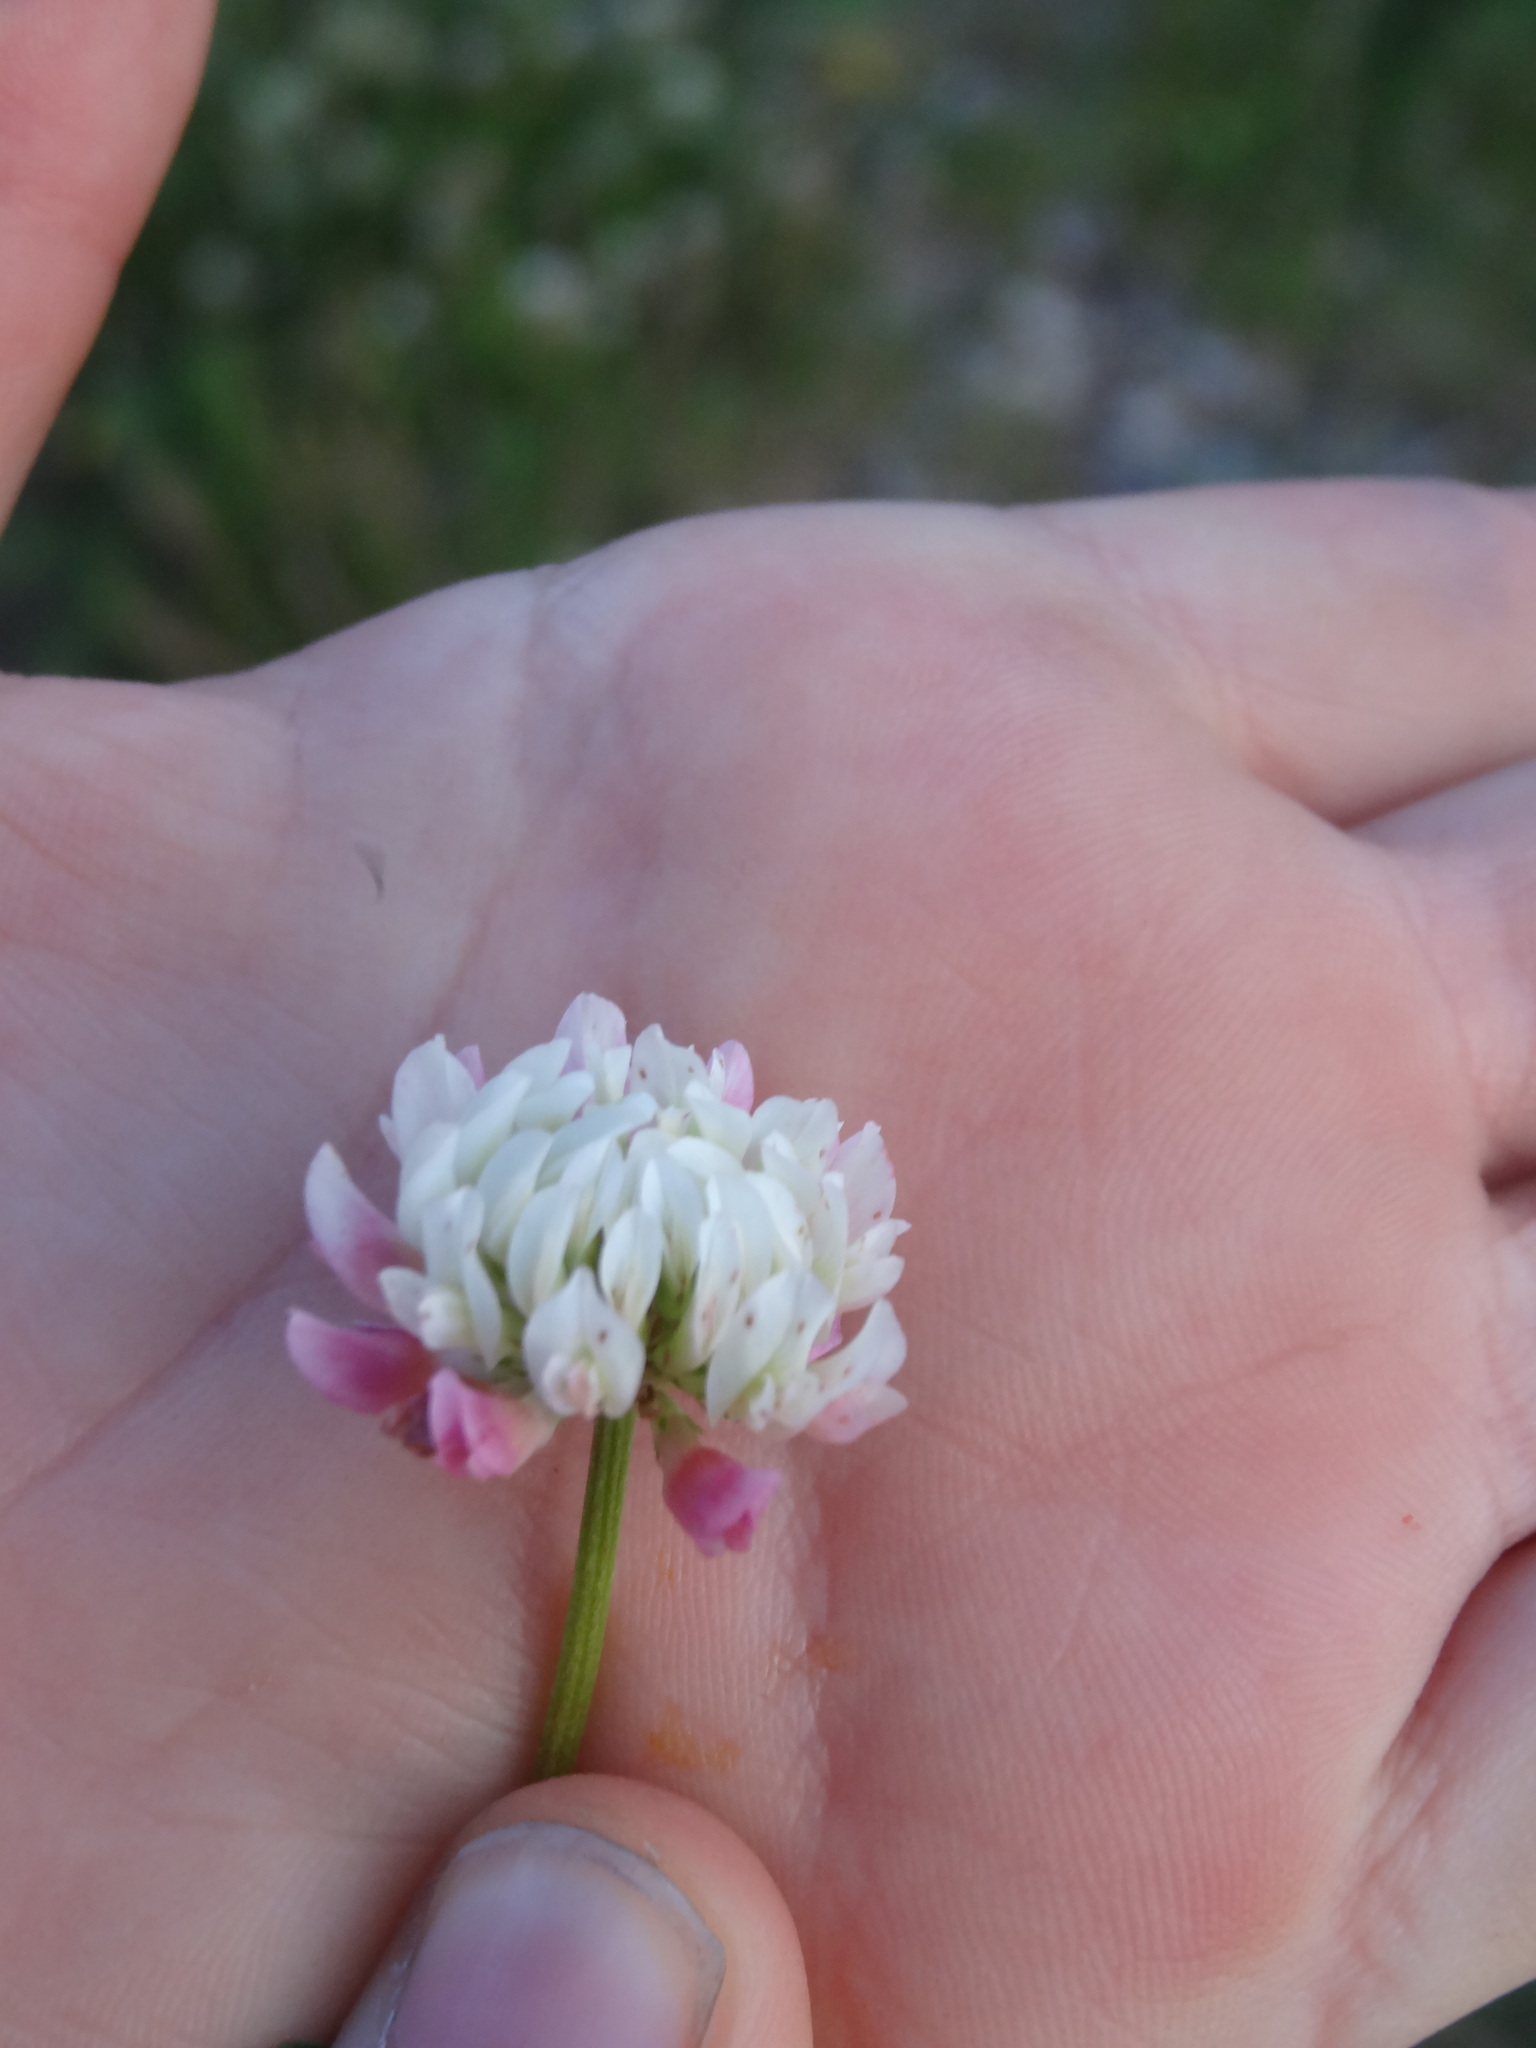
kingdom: Plantae
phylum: Tracheophyta
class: Magnoliopsida
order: Fabales
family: Fabaceae
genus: Trifolium
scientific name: Trifolium repens
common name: White clover
